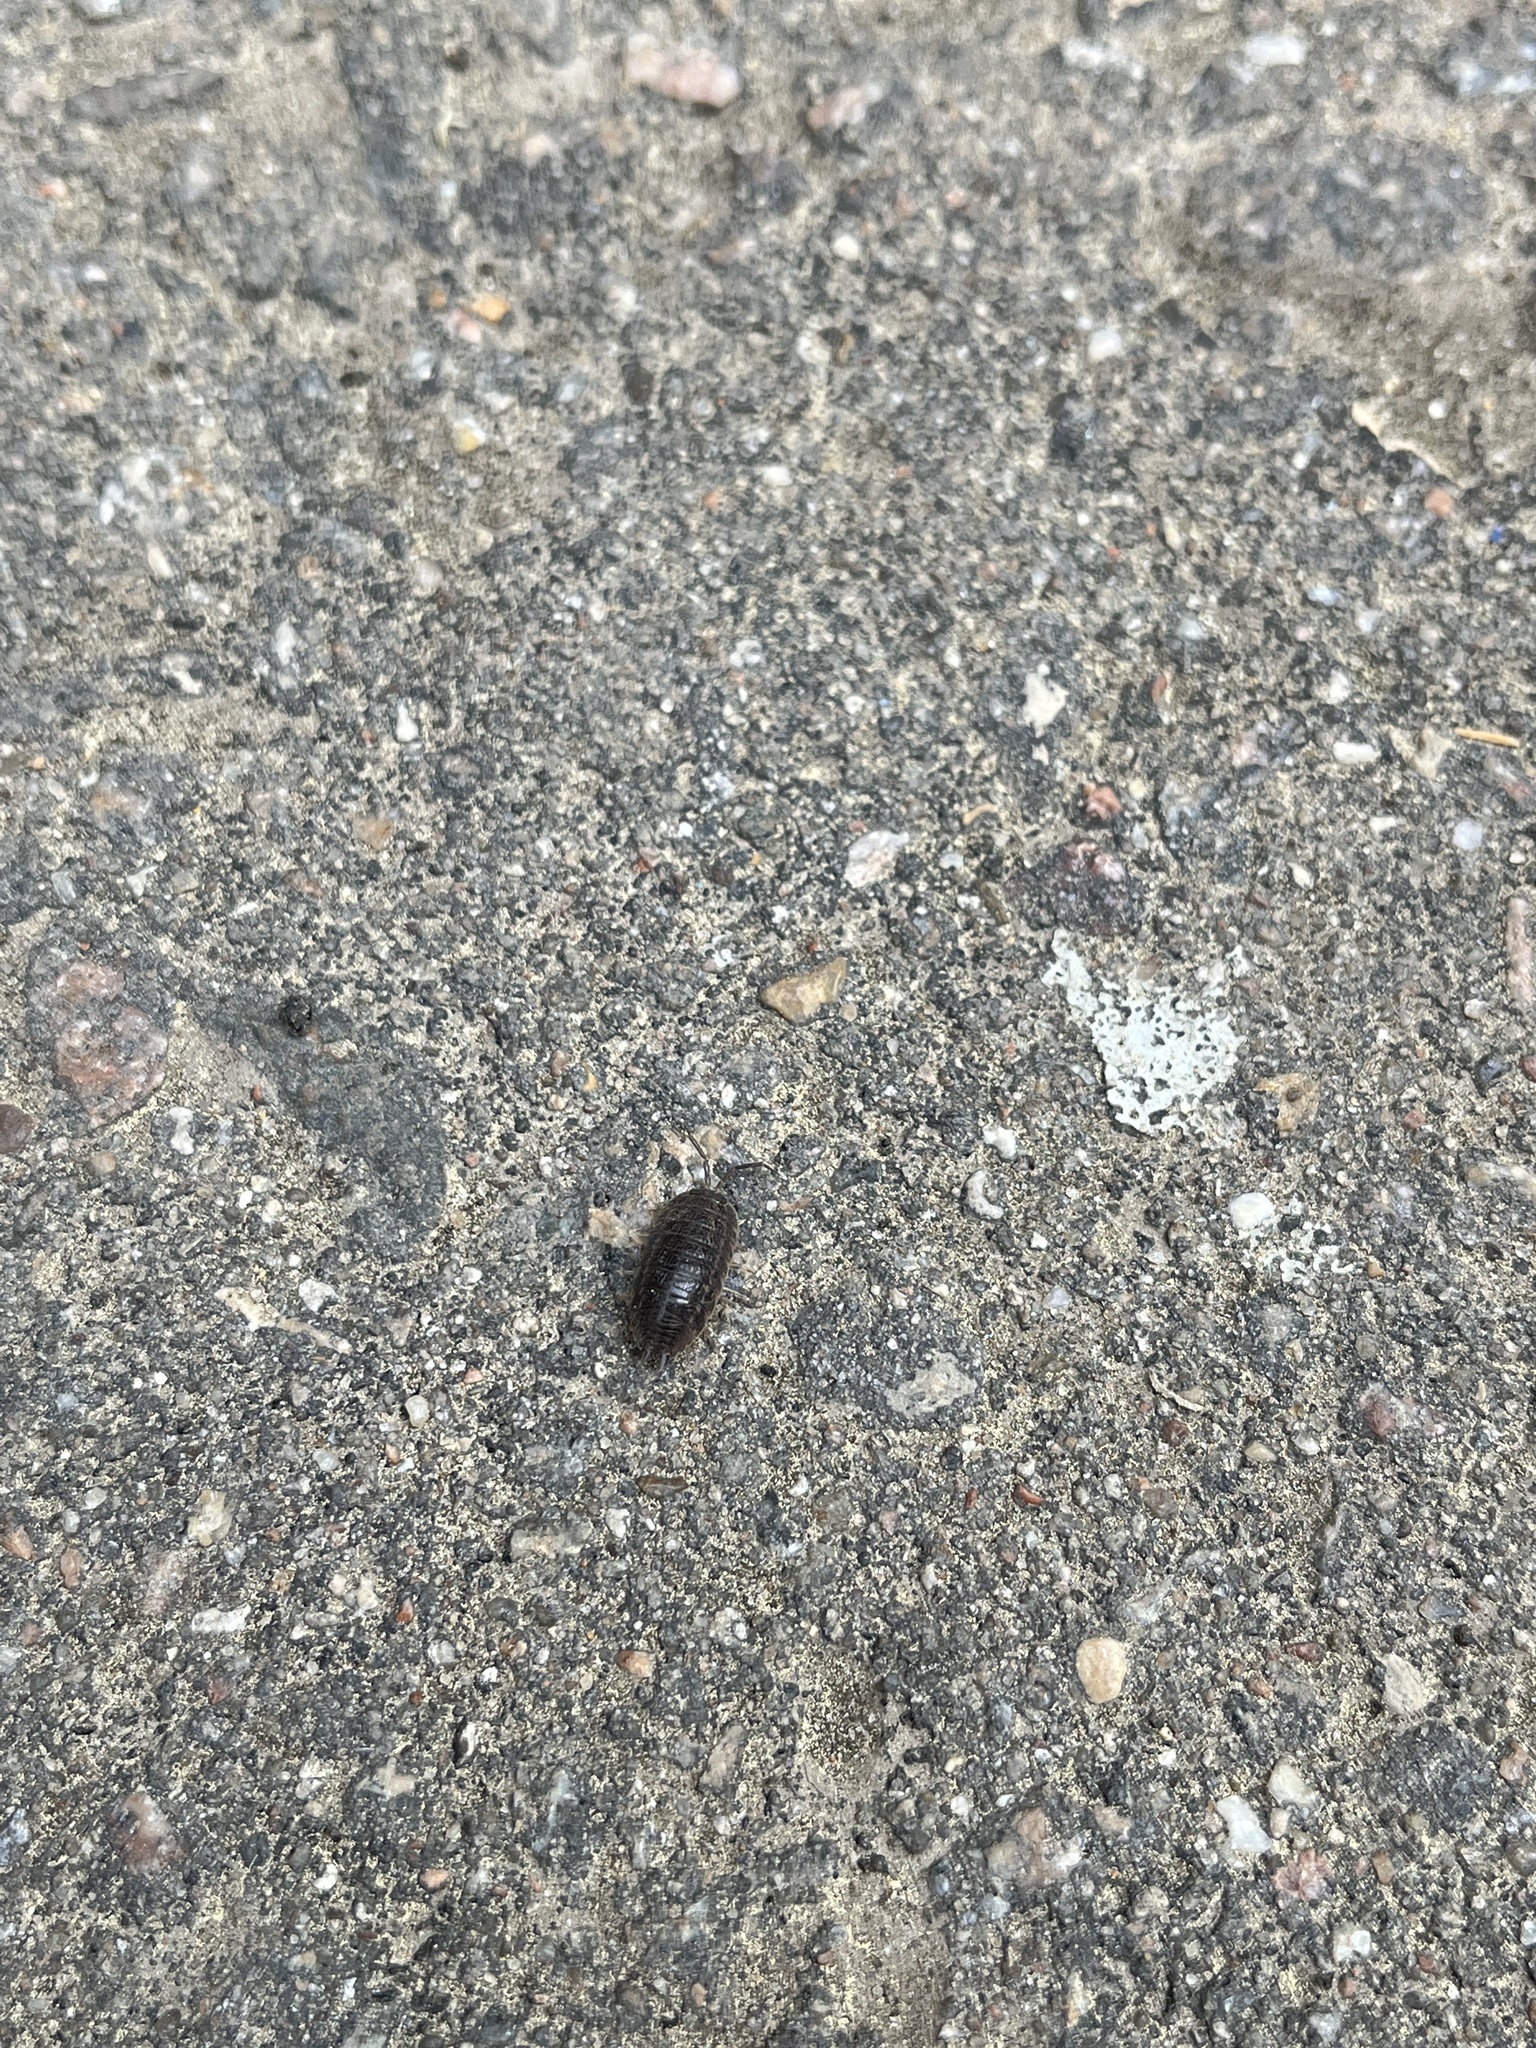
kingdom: Animalia
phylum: Arthropoda
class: Malacostraca
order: Isopoda
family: Trachelipodidae
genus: Trachelipus
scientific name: Trachelipus rathkii
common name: Isopod
